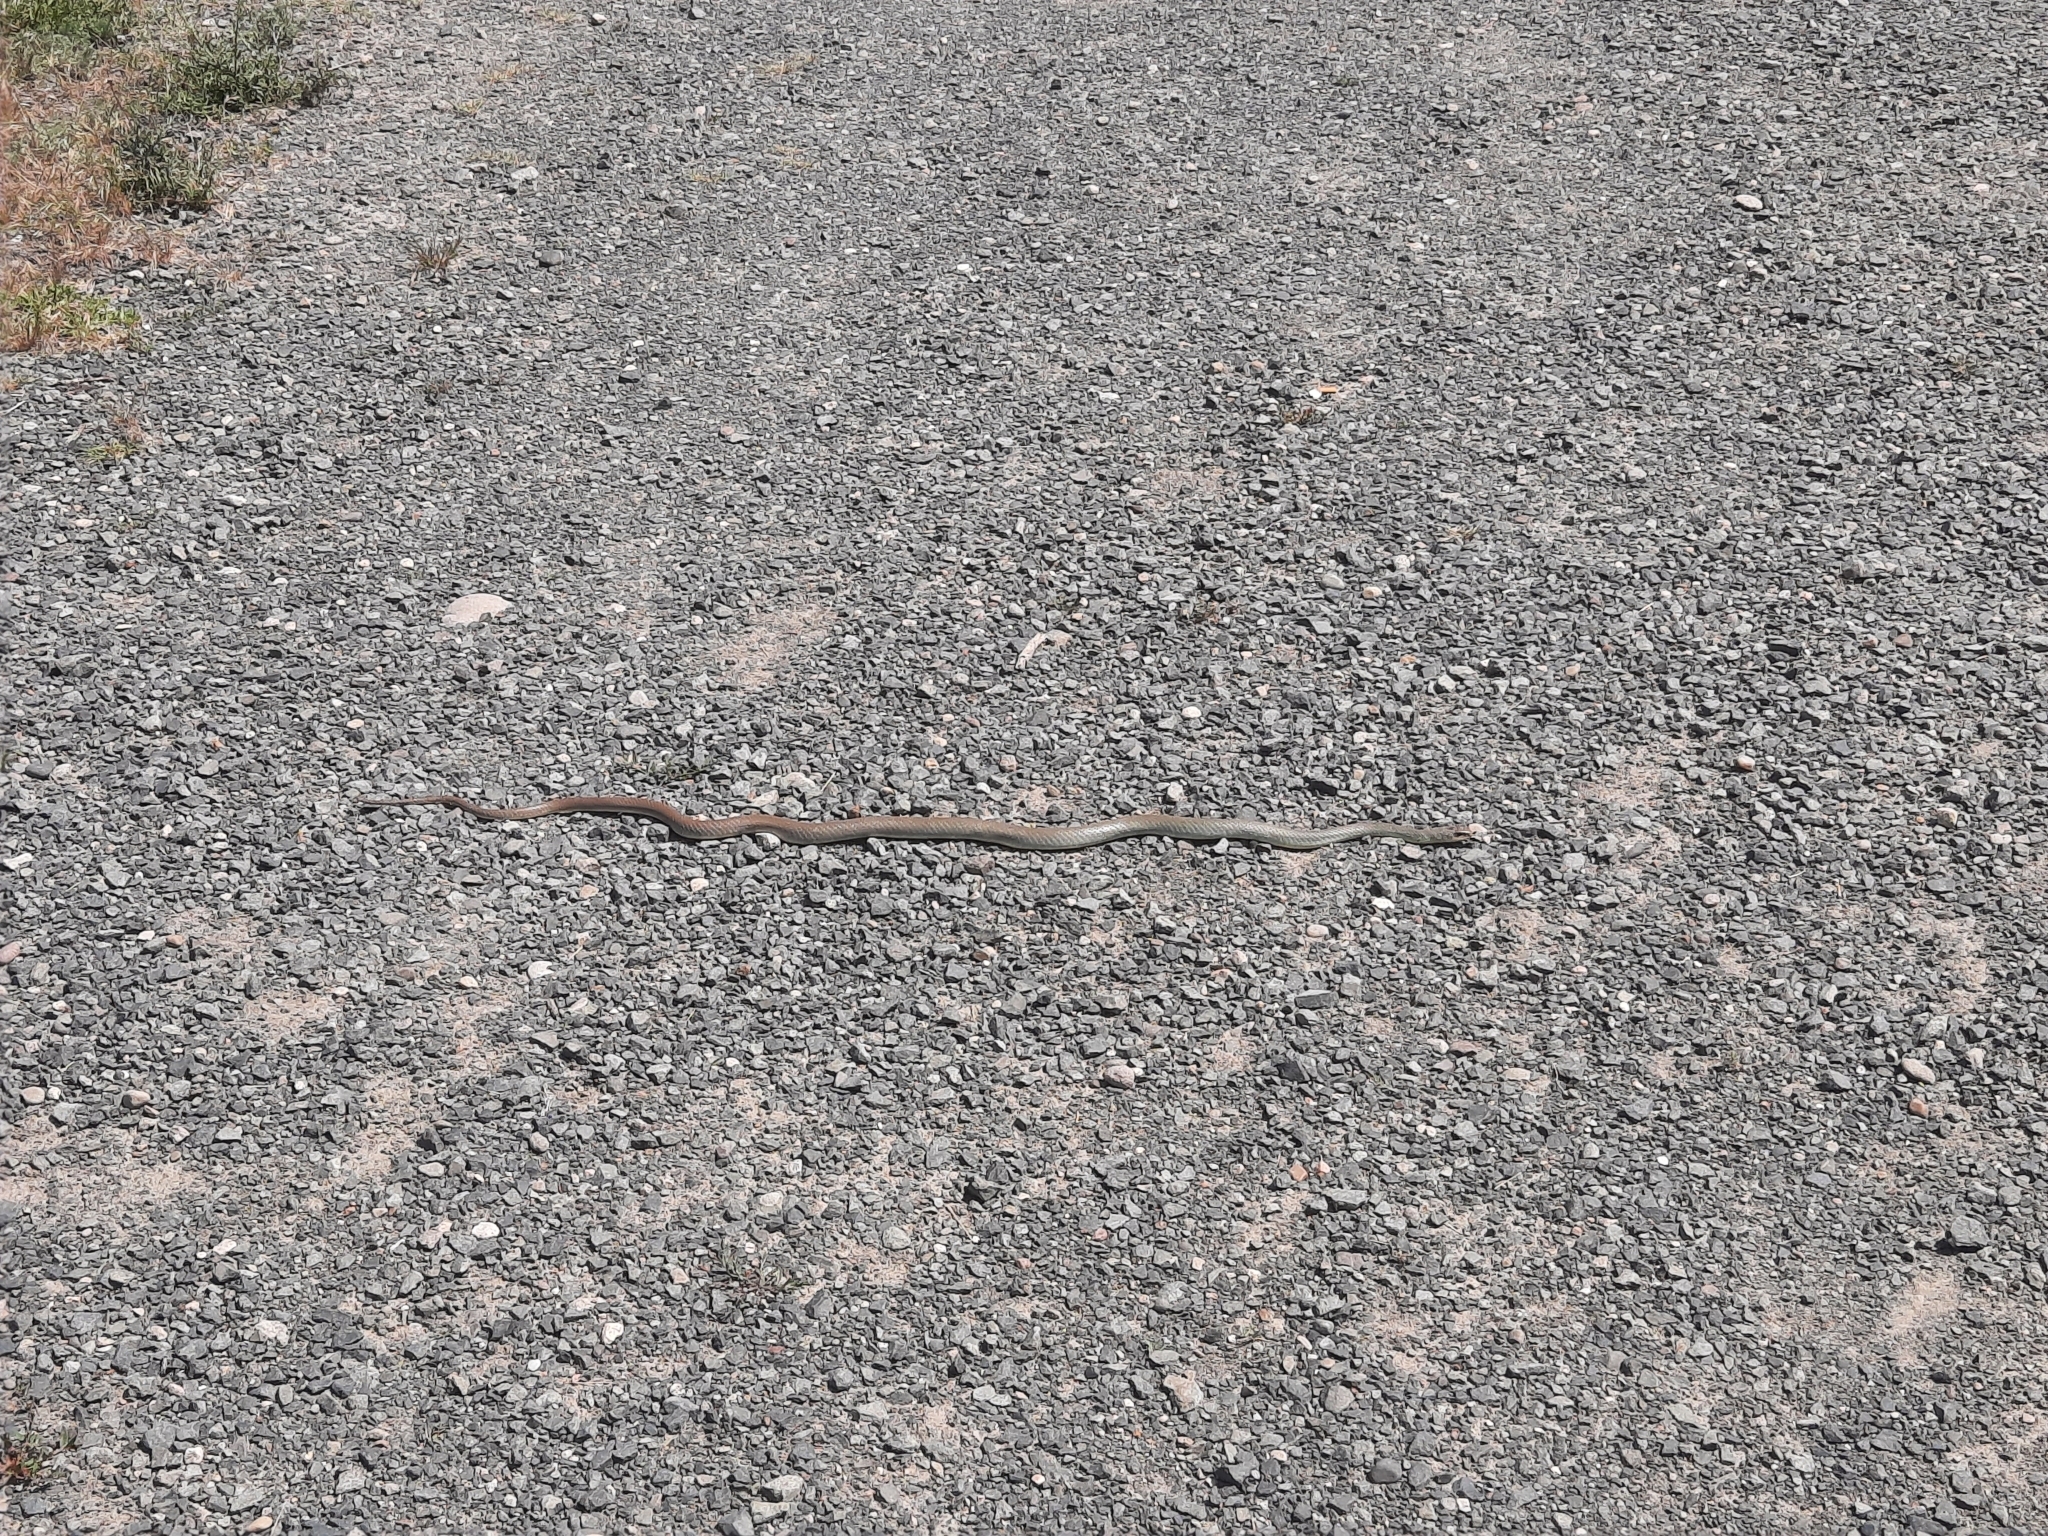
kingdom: Animalia
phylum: Chordata
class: Squamata
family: Colubridae
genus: Coluber
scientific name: Coluber constrictor
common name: Eastern racer
